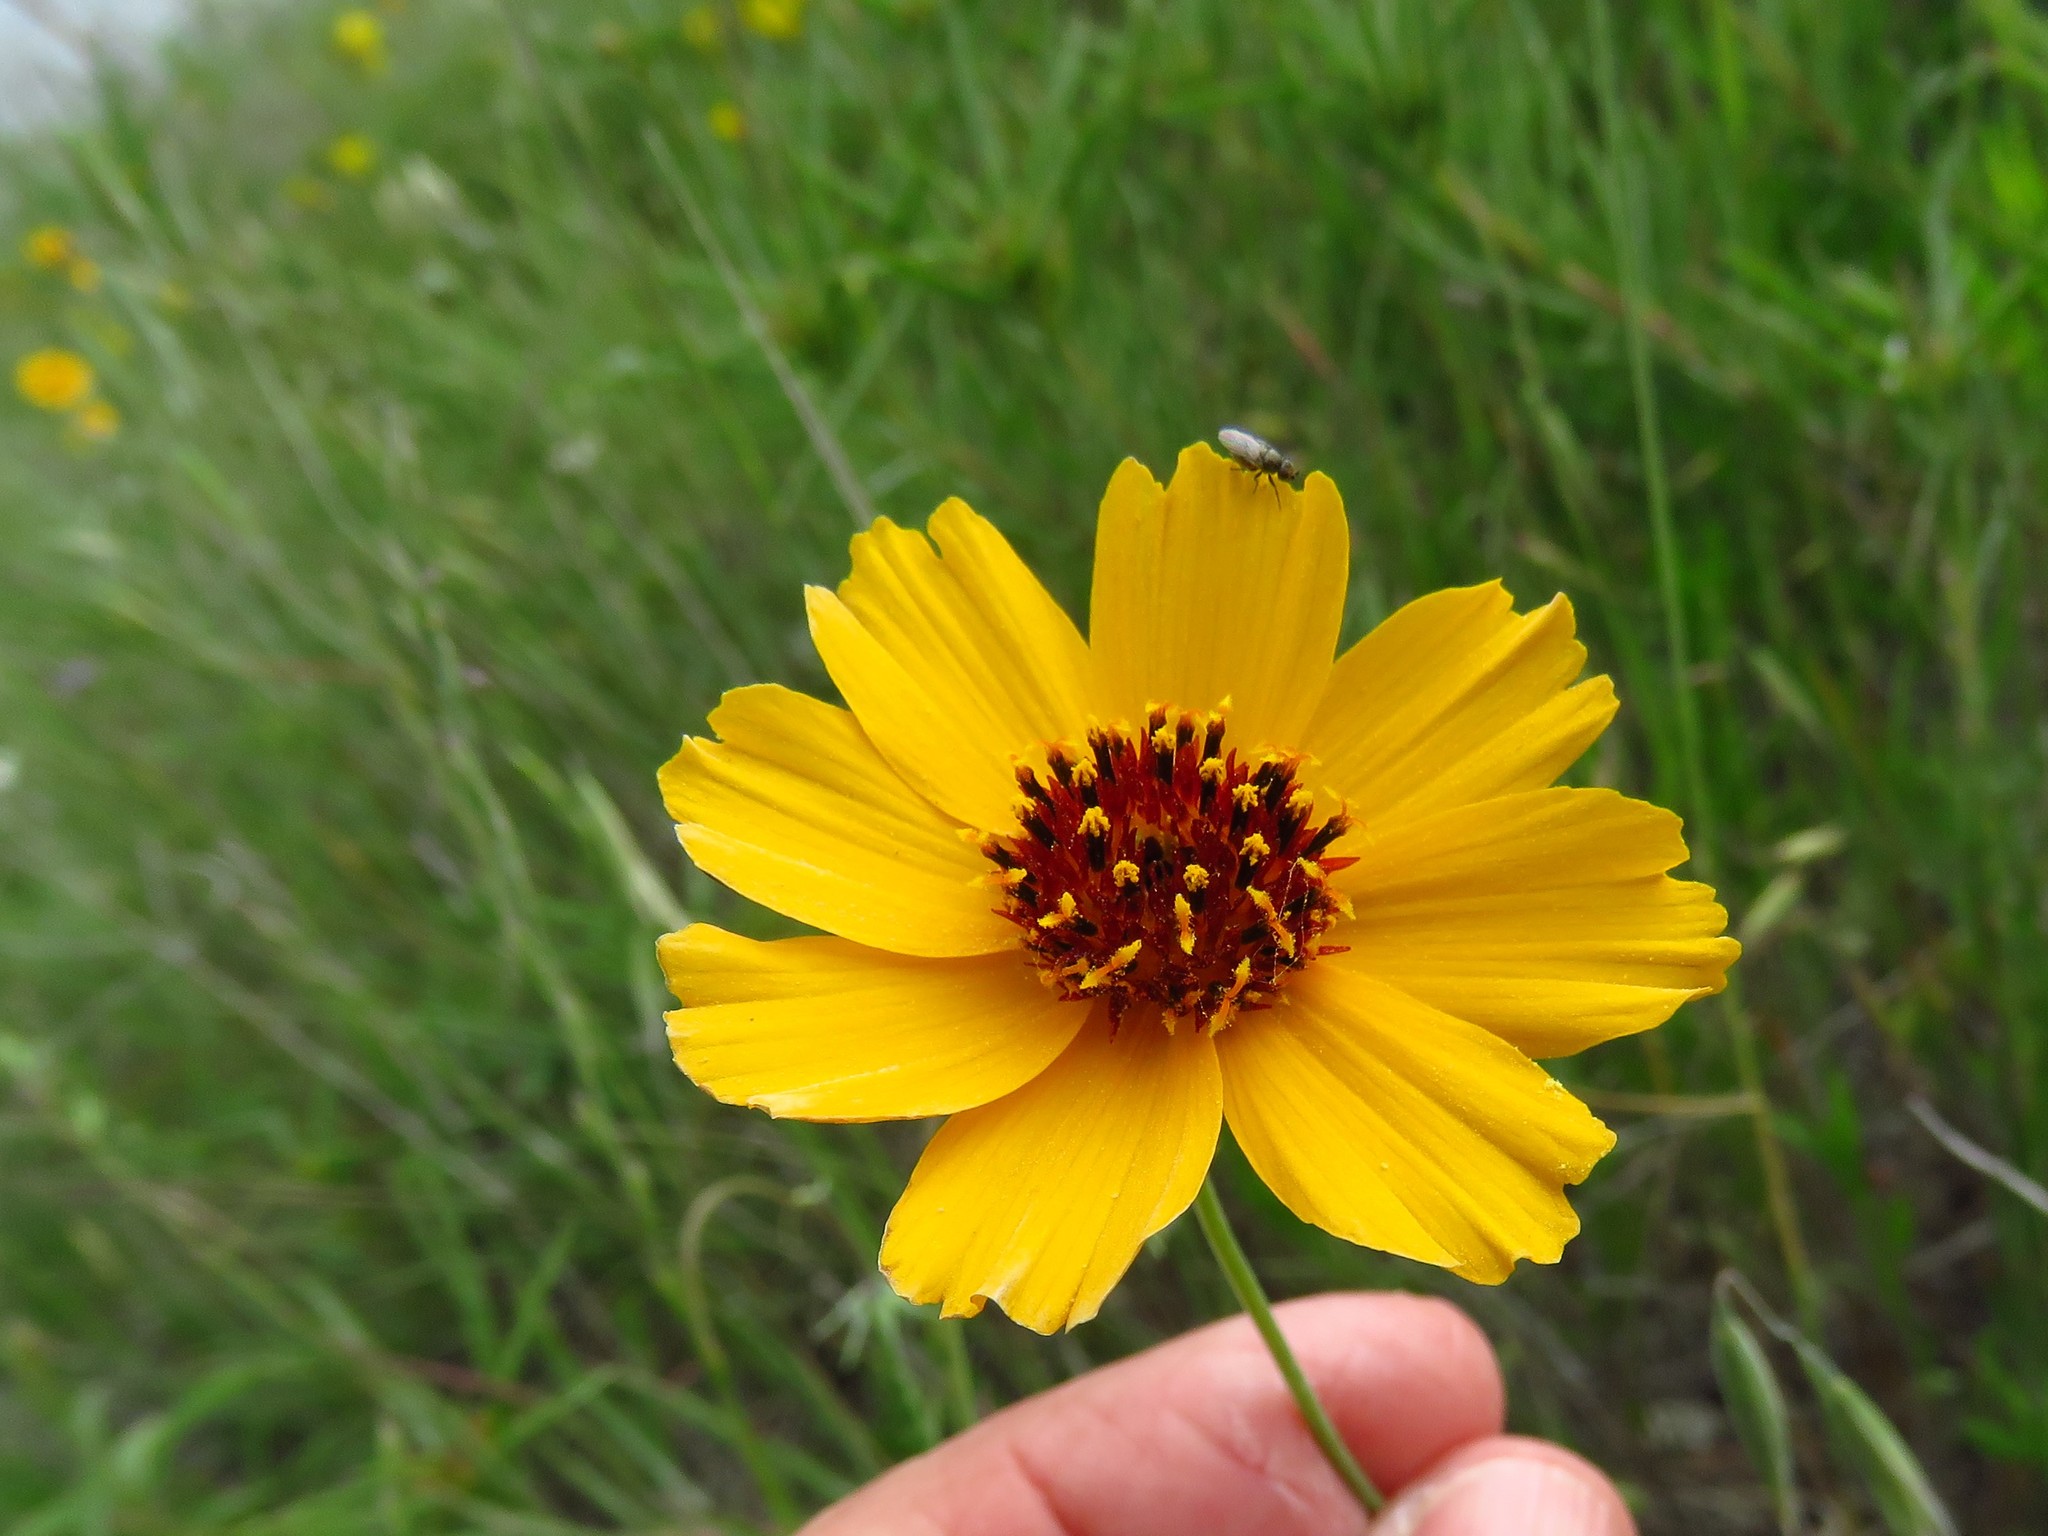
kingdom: Plantae
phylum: Tracheophyta
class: Magnoliopsida
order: Asterales
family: Asteraceae
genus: Thelesperma
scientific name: Thelesperma filifolium
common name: Stiff greenthread
